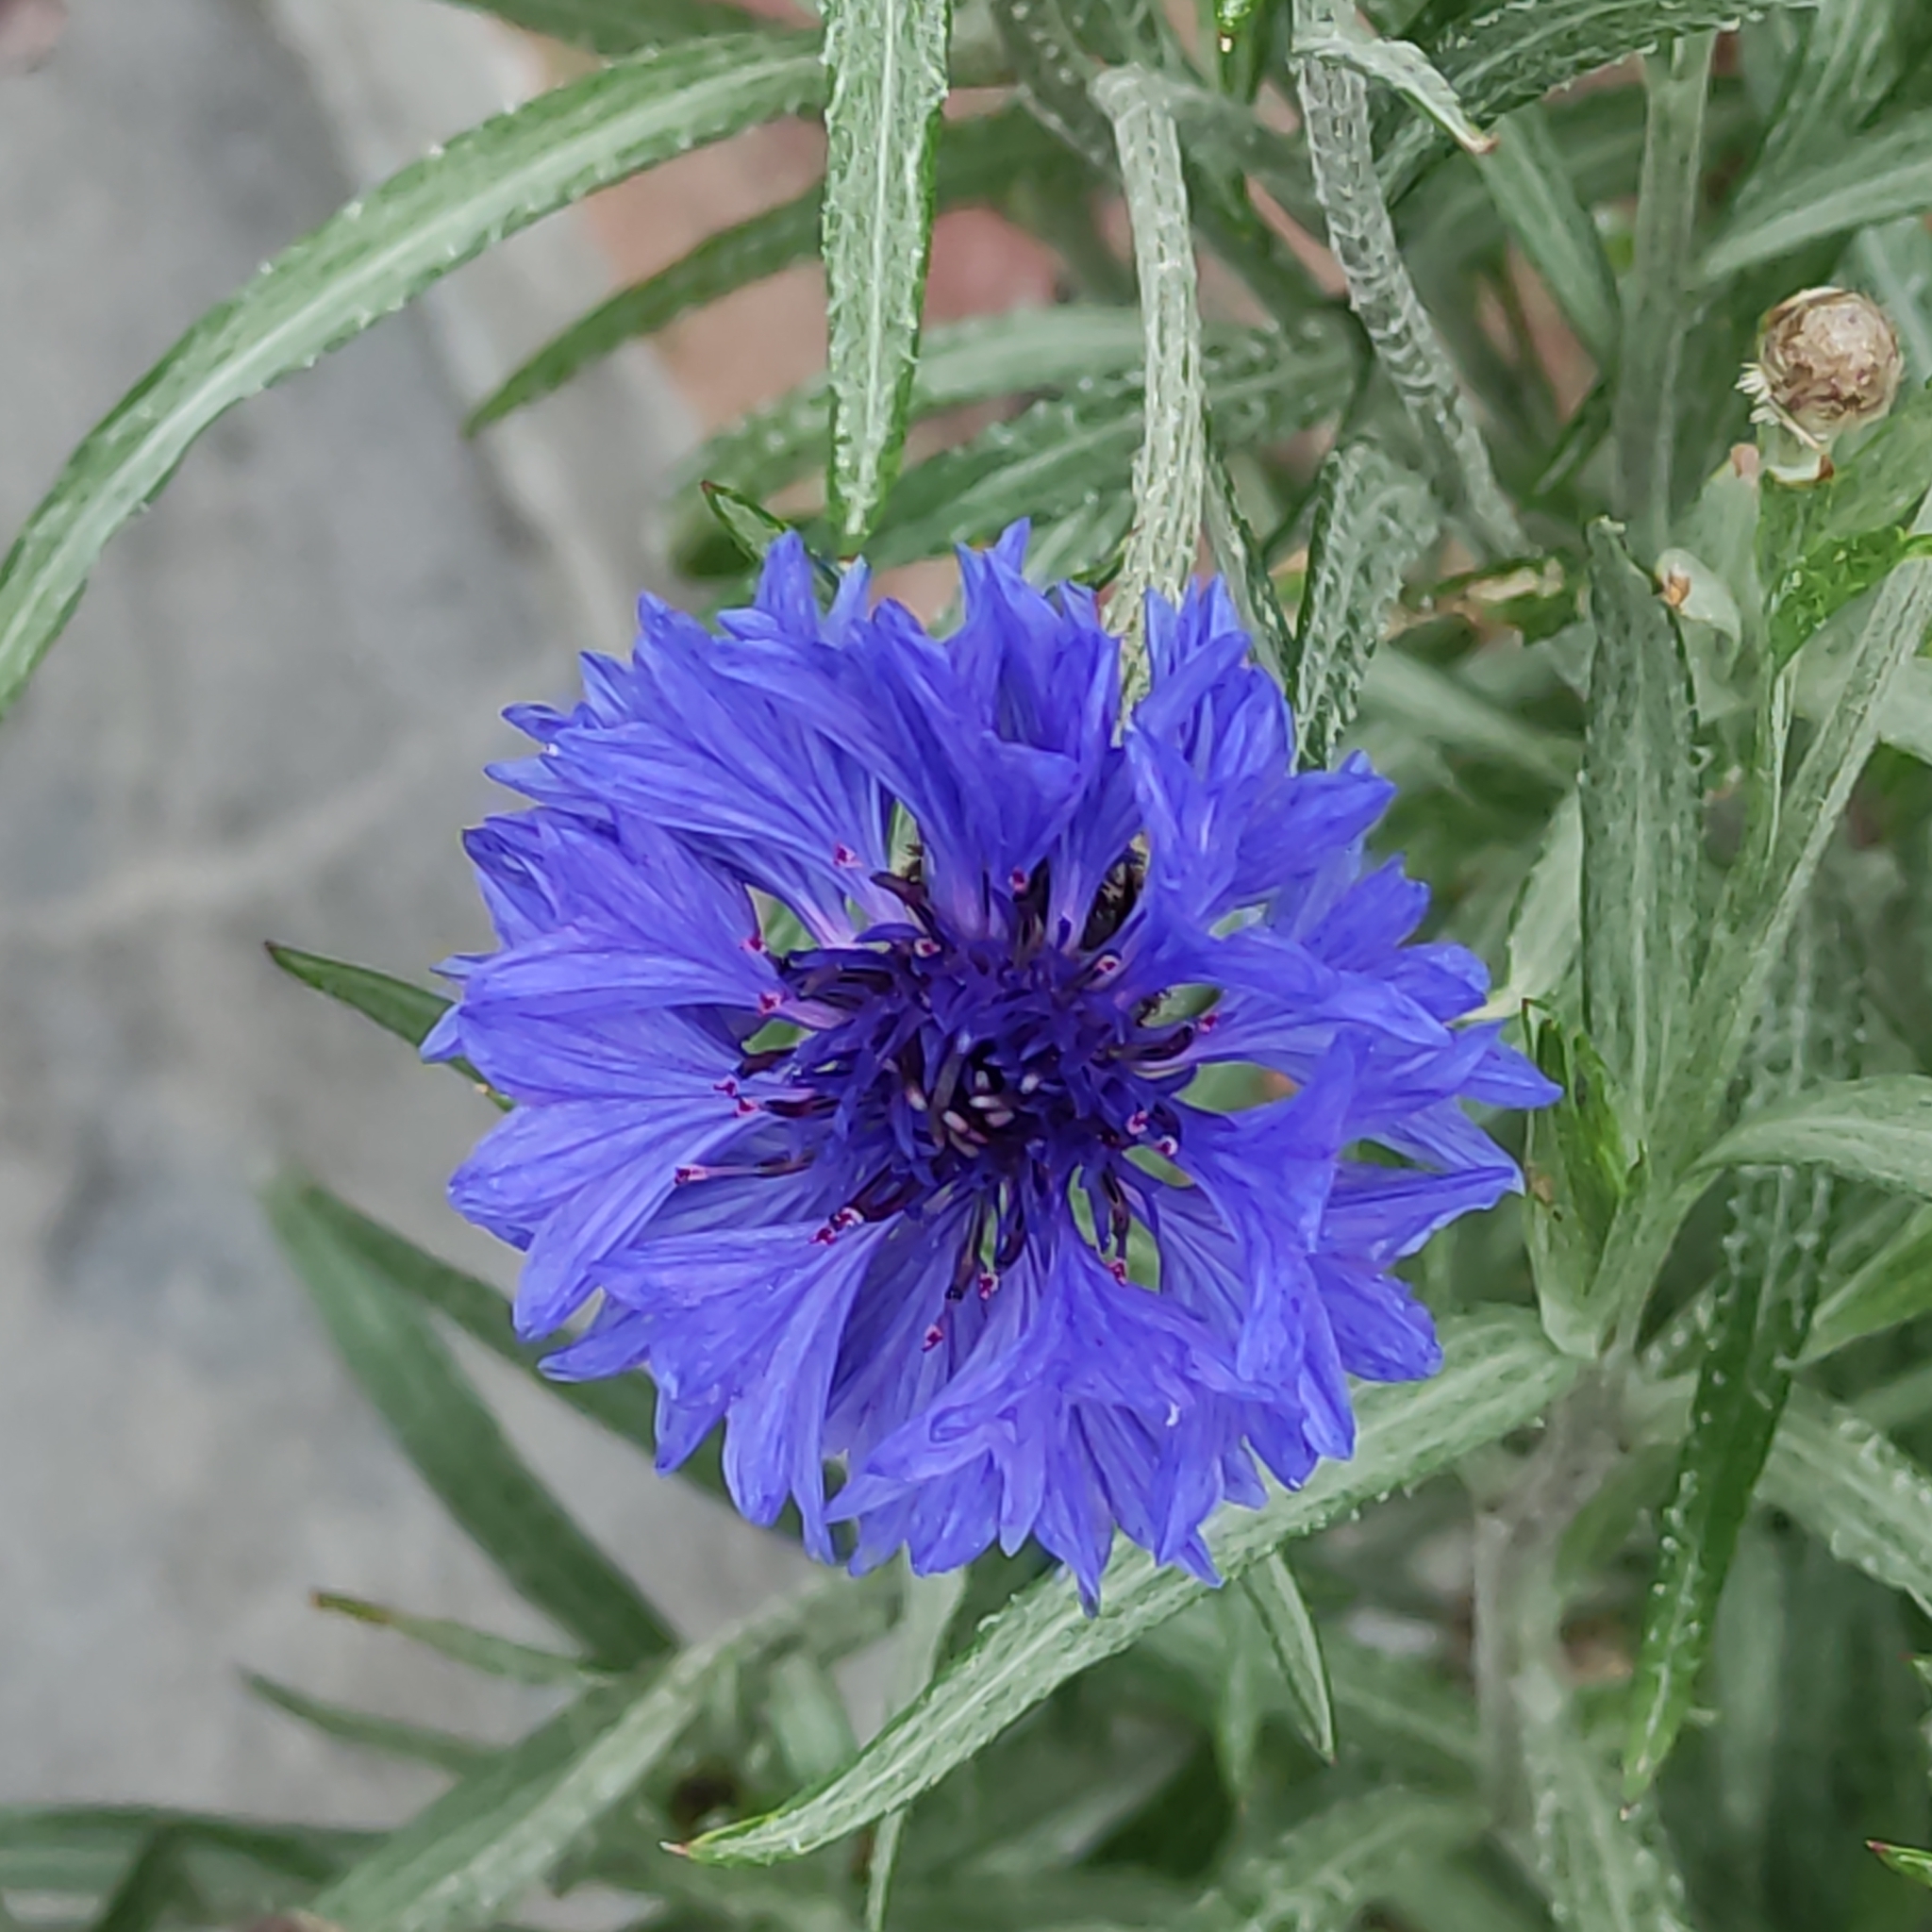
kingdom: Plantae
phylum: Tracheophyta
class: Magnoliopsida
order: Asterales
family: Asteraceae
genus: Centaurea
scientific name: Centaurea cyanus
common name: Cornflower
